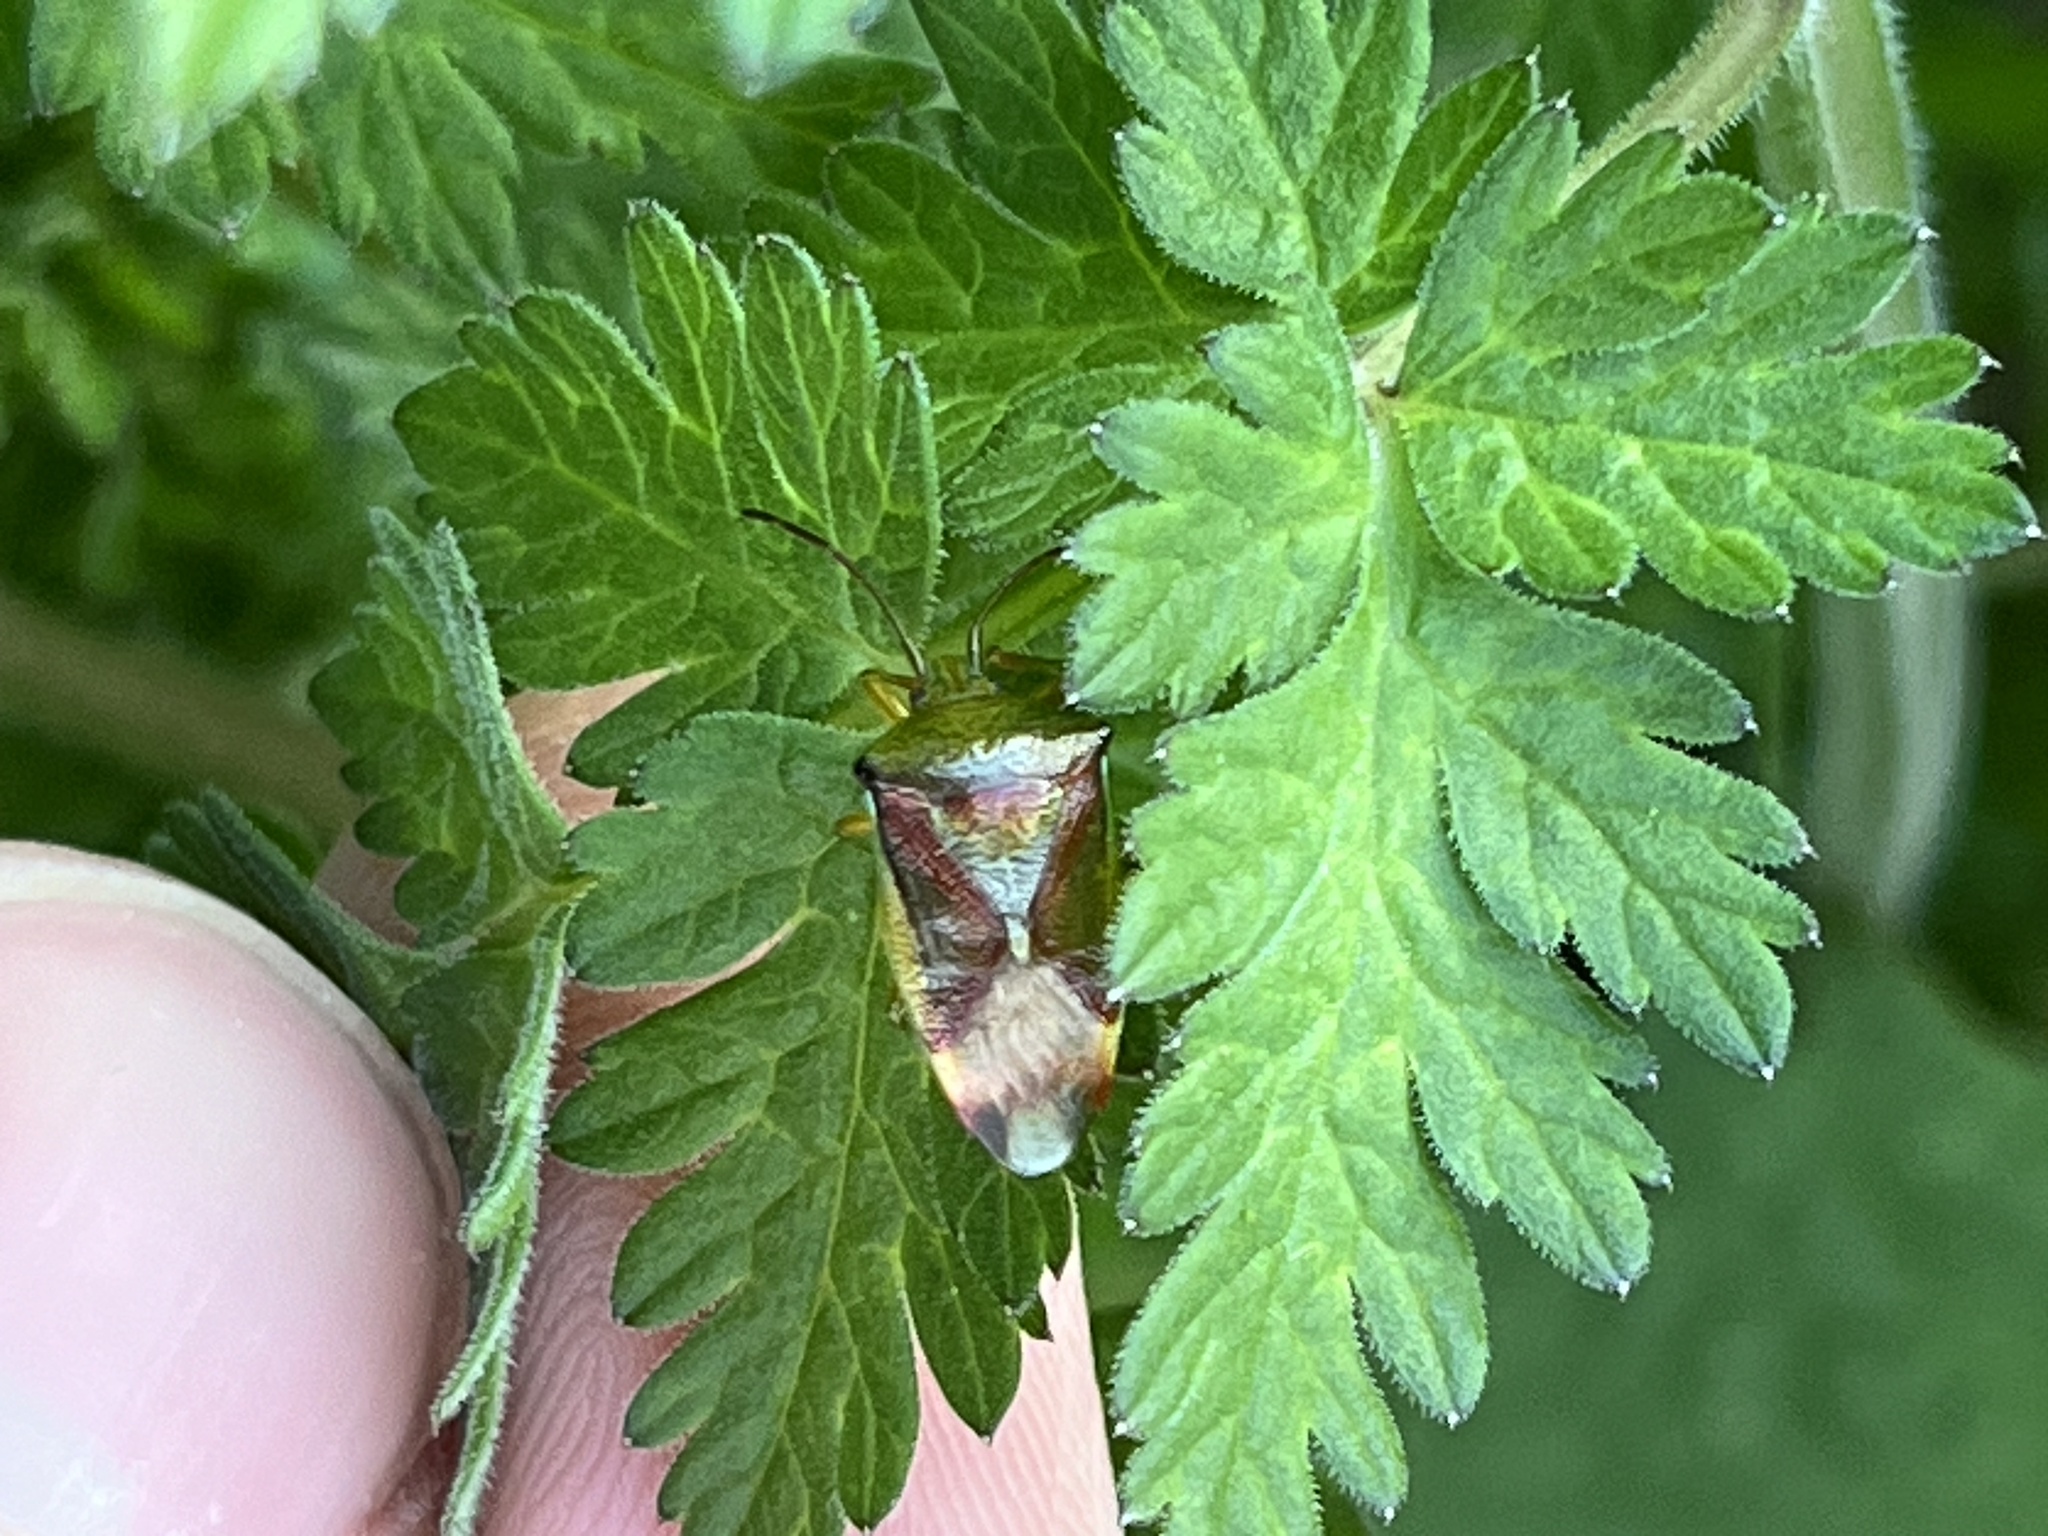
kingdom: Animalia
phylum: Arthropoda
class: Insecta
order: Hemiptera
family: Acanthosomatidae
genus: Elasmostethus
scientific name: Elasmostethus interstinctus
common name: Birch shieldbug
